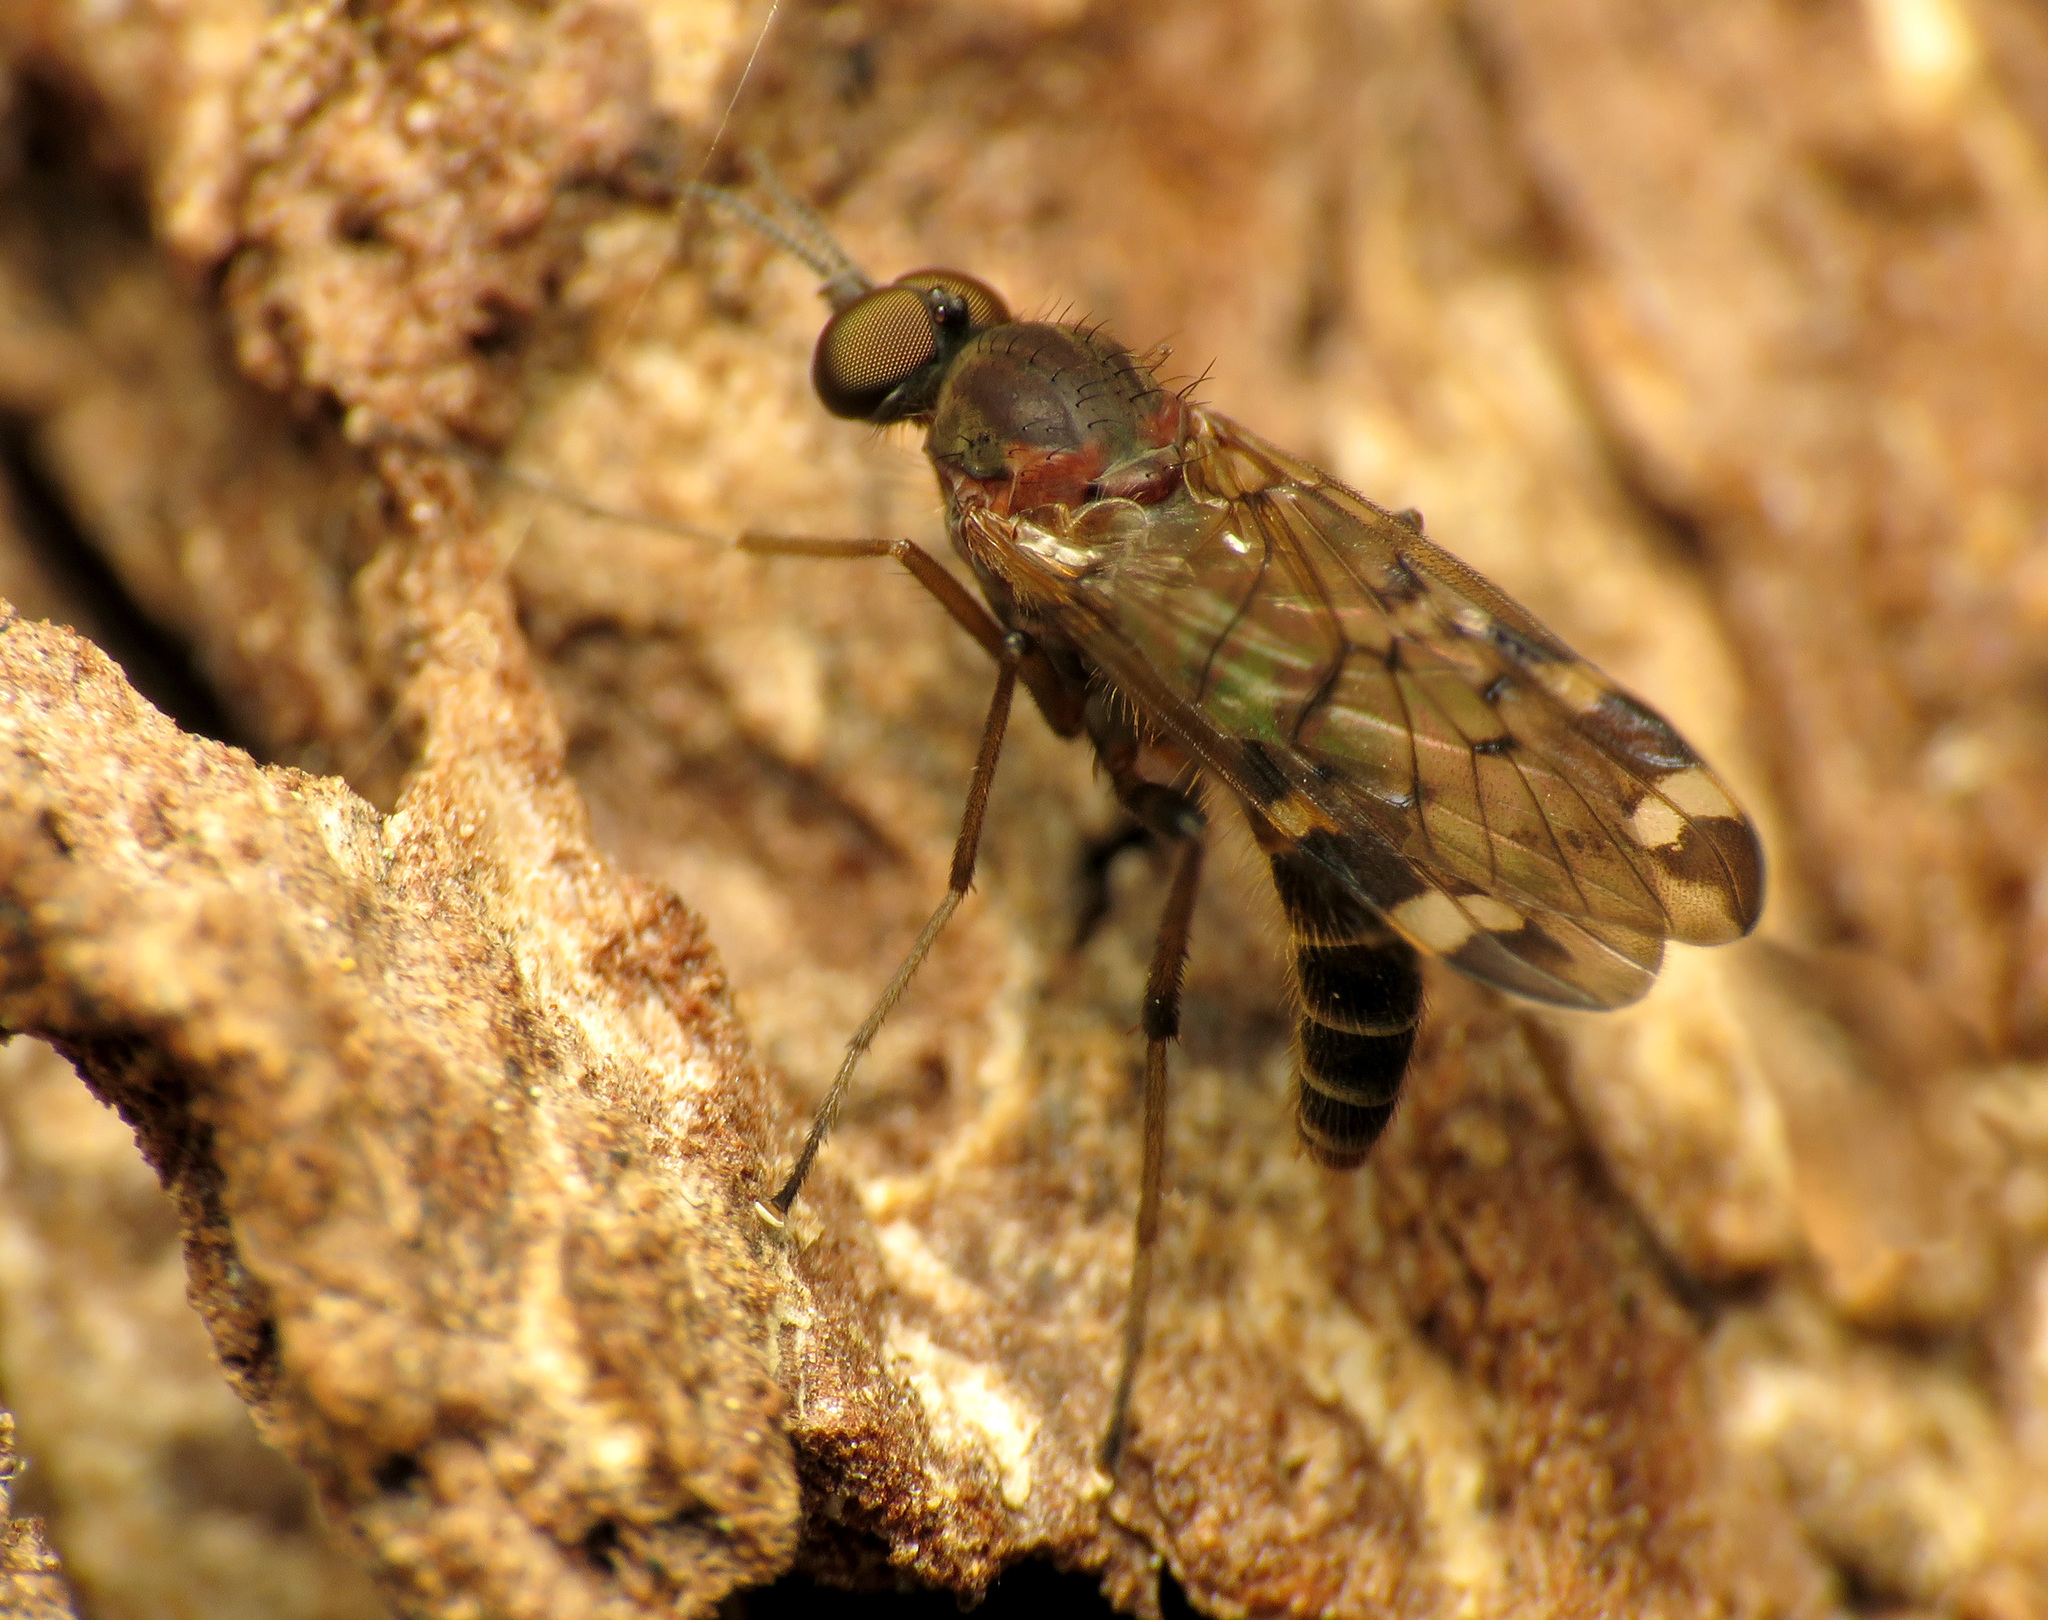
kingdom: Animalia
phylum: Arthropoda
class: Insecta
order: Diptera
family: Anisopodidae
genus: Sylvicola
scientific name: Sylvicola alternata
